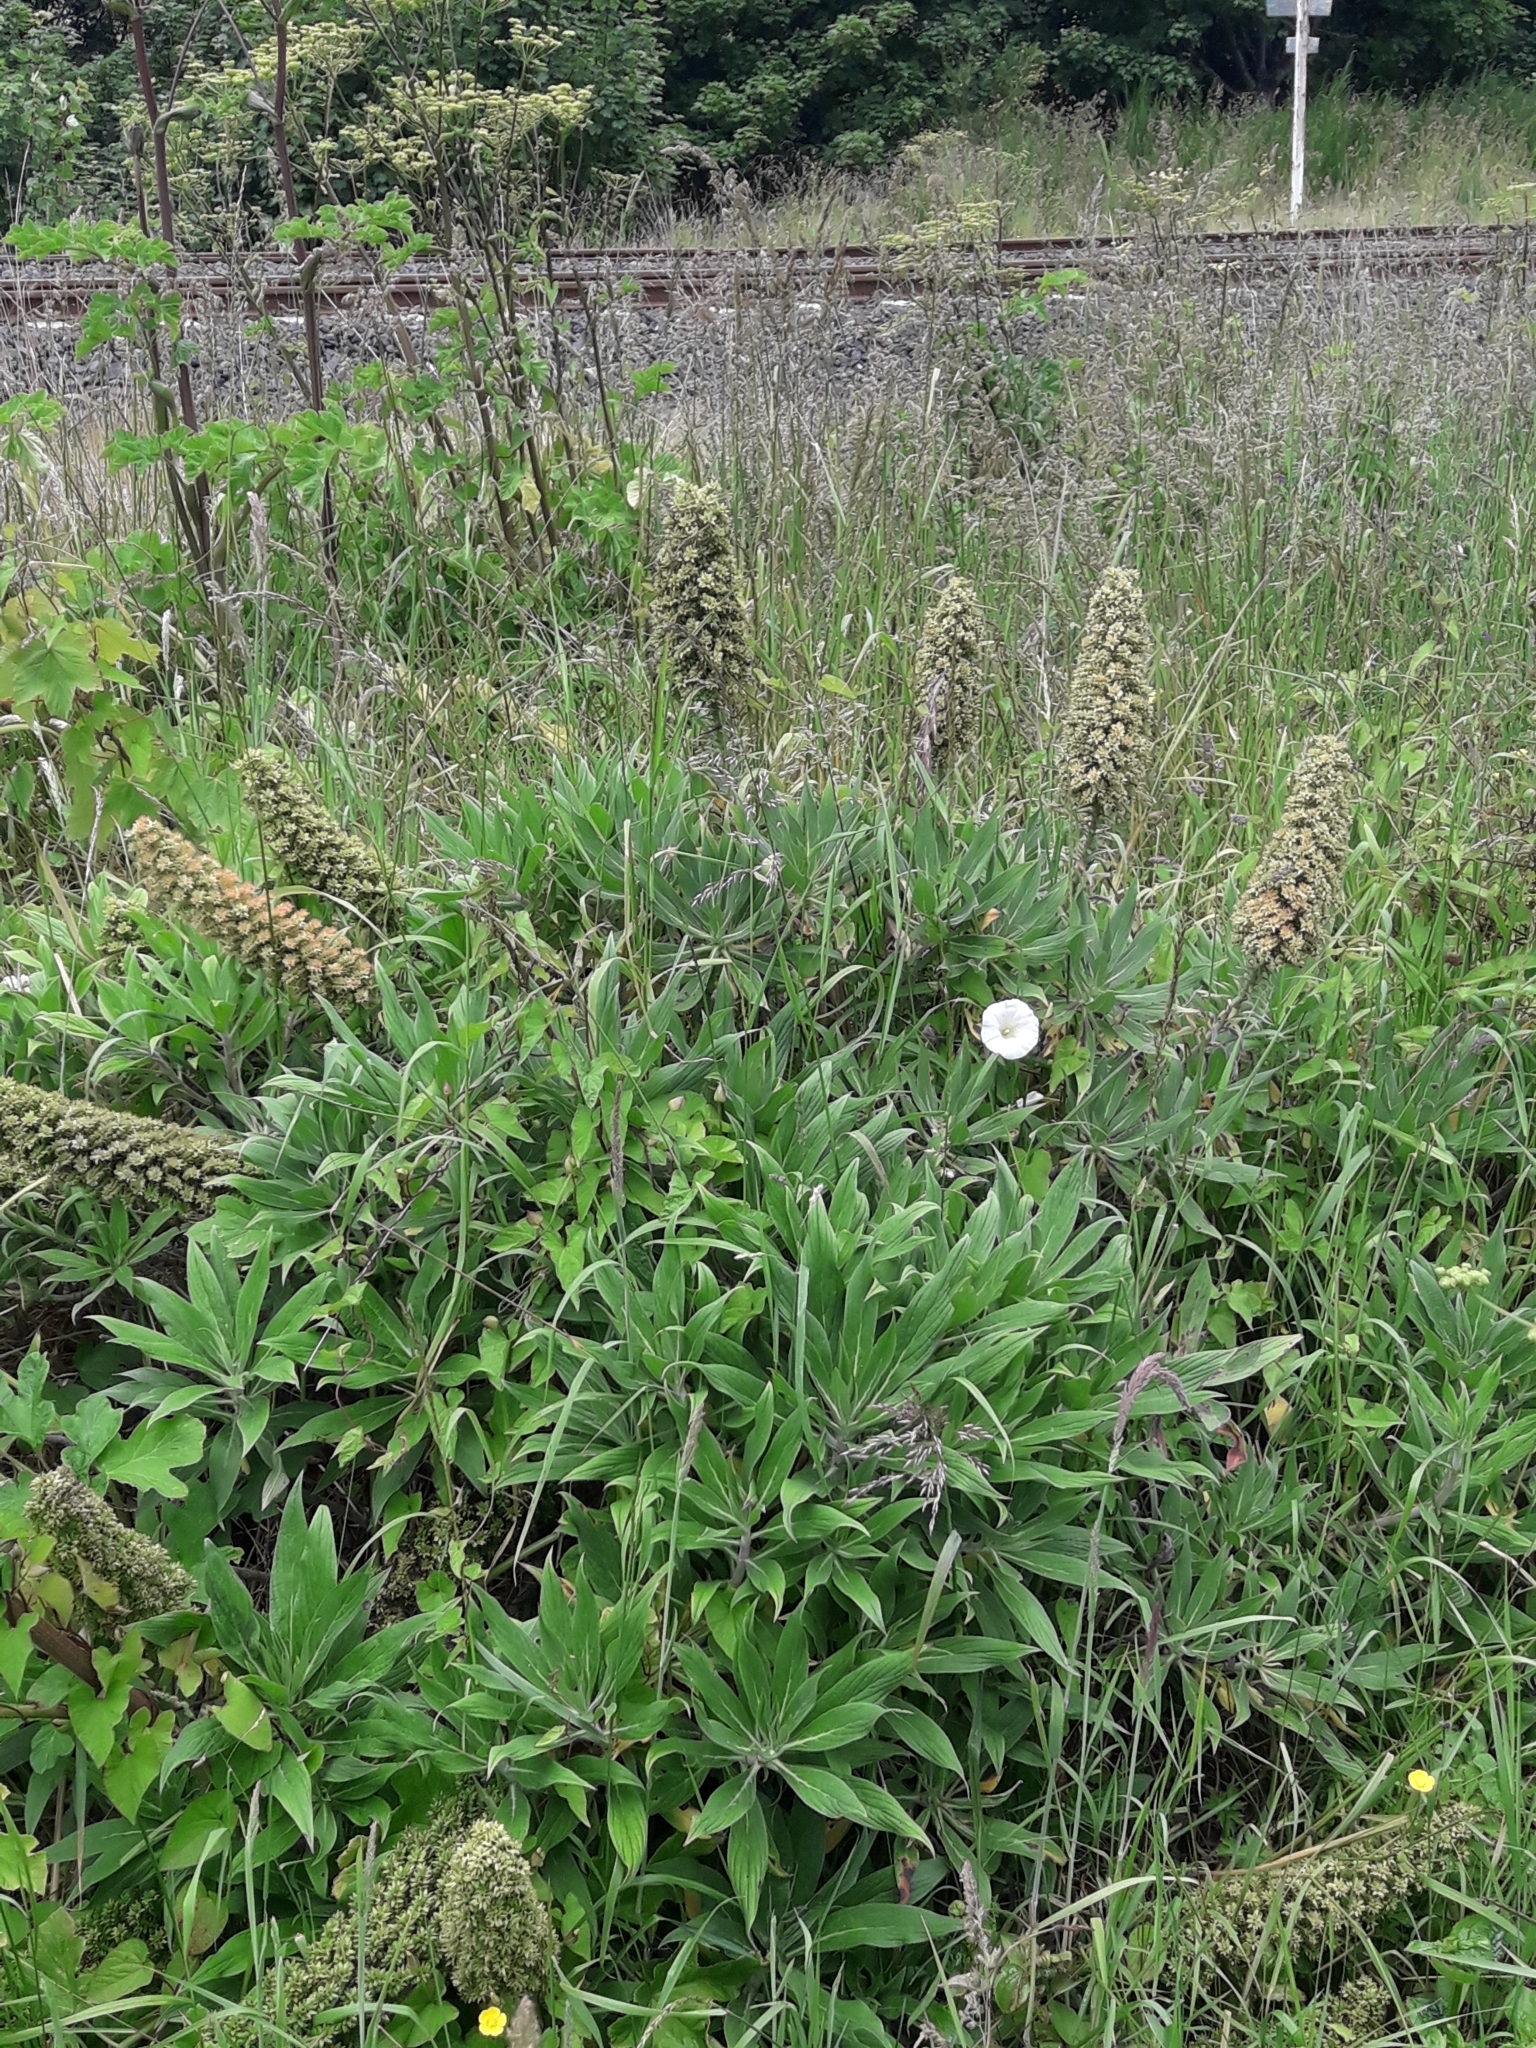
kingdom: Plantae
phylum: Tracheophyta
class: Magnoliopsida
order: Boraginales
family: Boraginaceae
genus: Echium
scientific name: Echium candicans
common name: Pride of madeira
